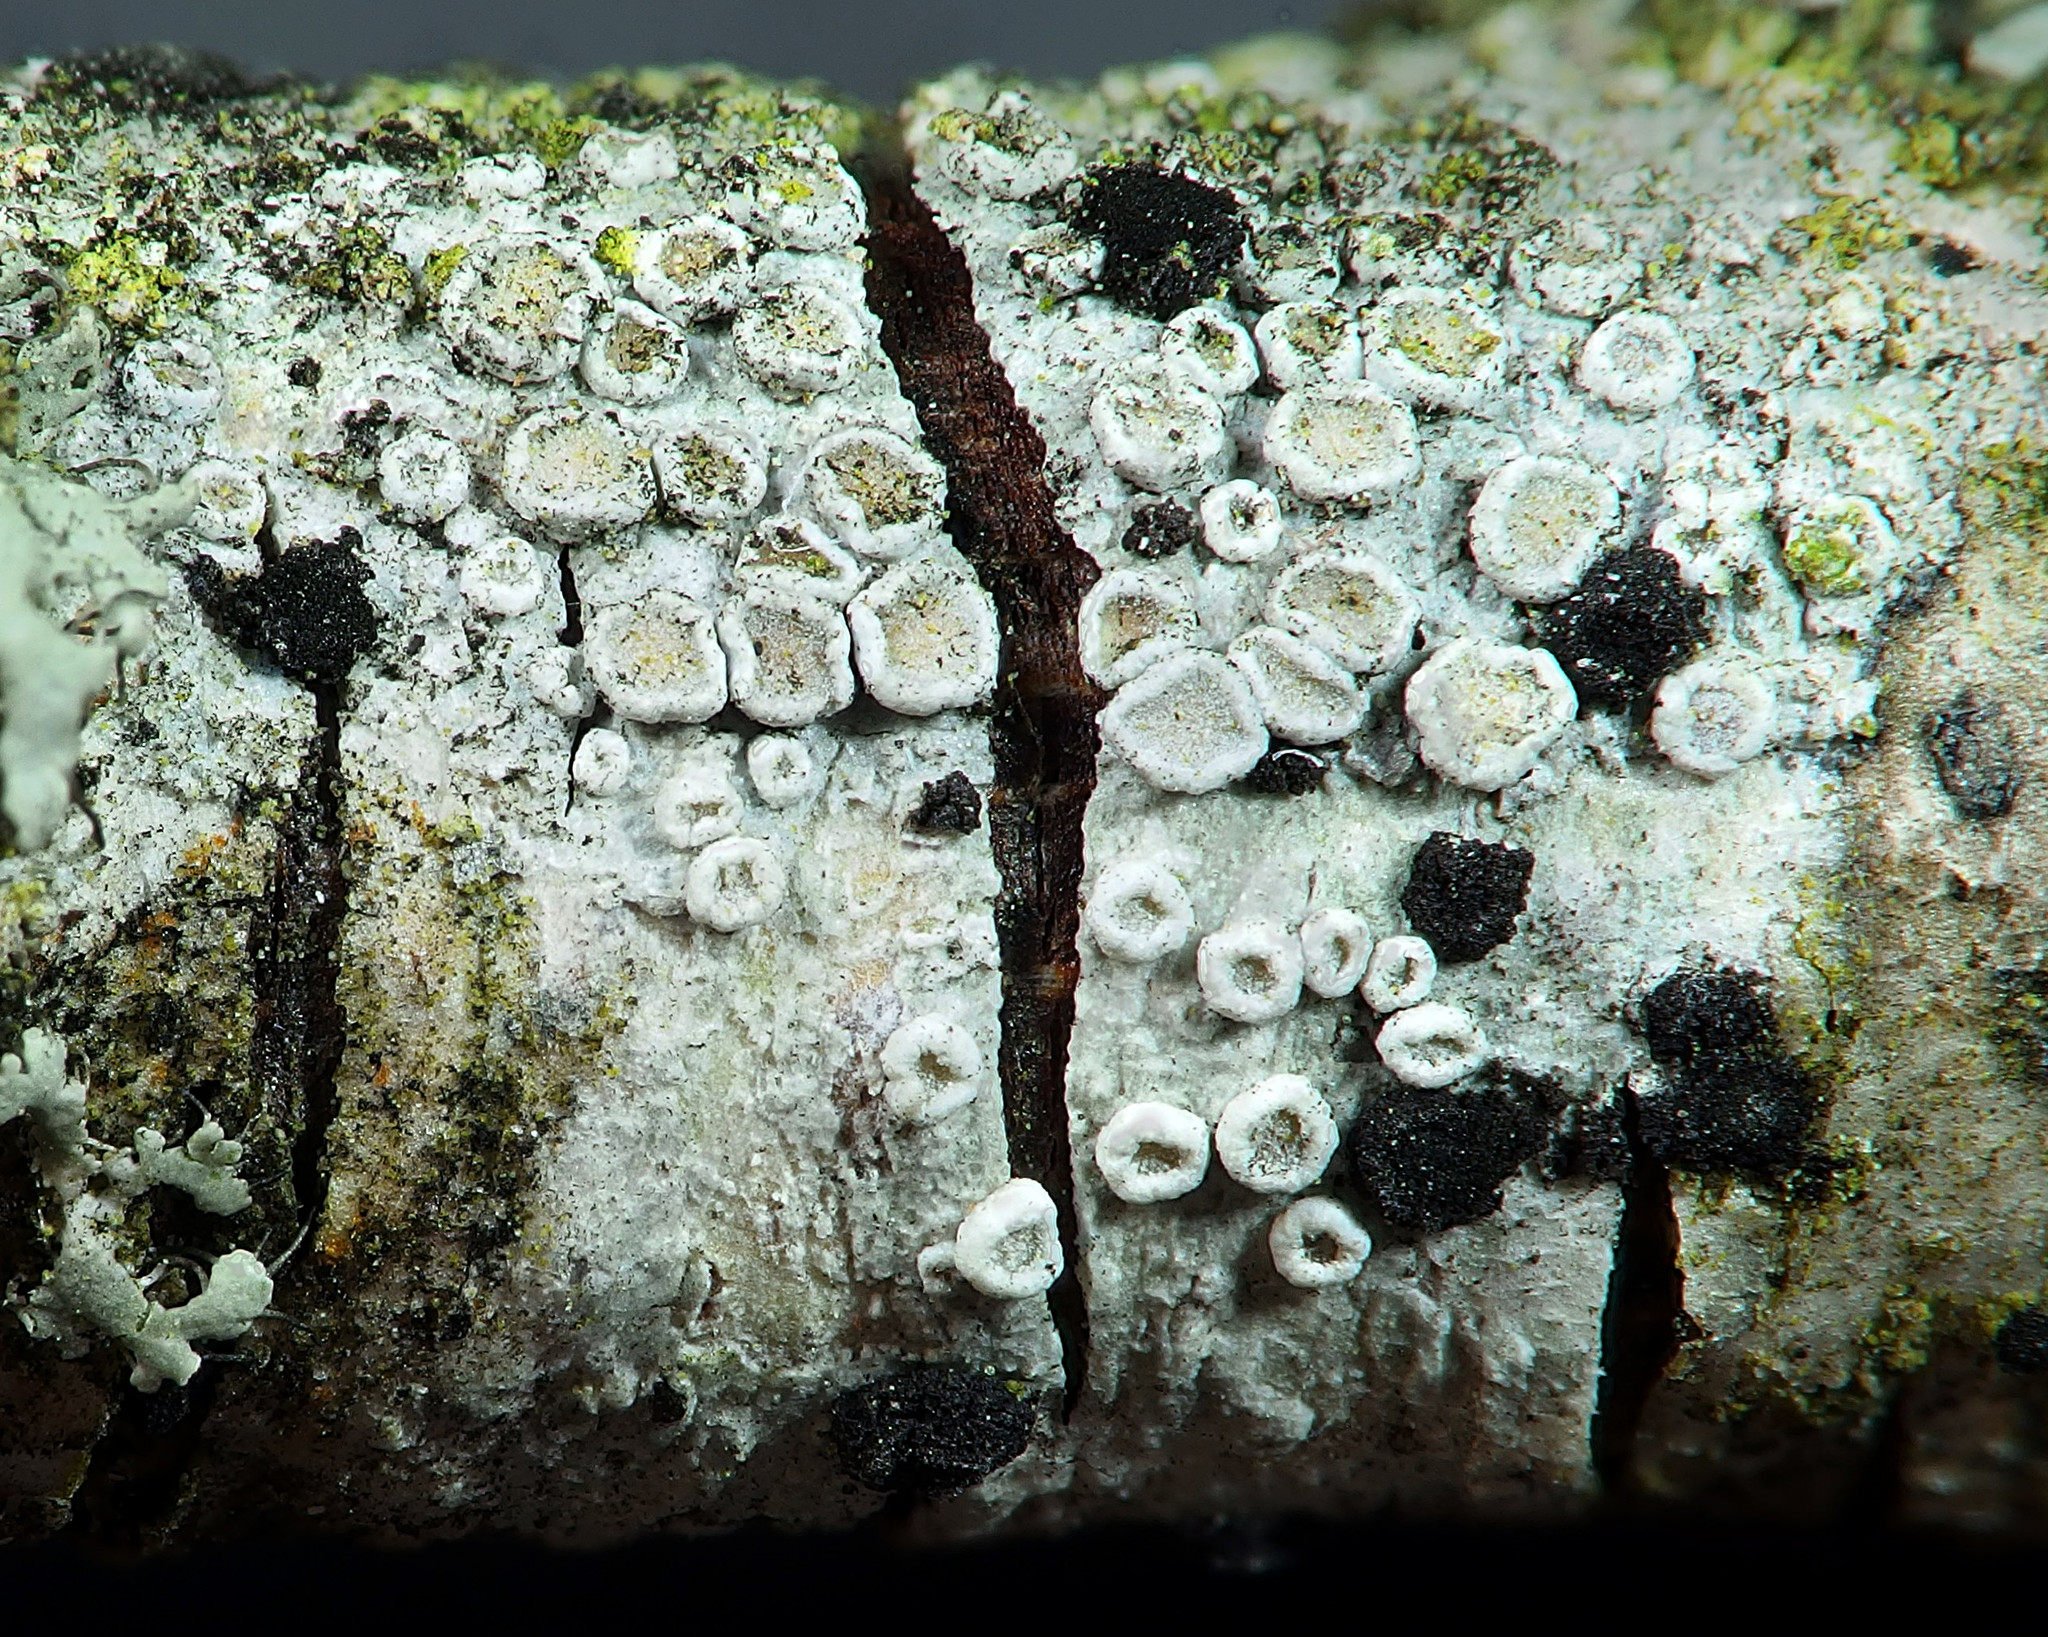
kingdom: Fungi
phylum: Ascomycota
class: Lecanoromycetes
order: Lecanorales
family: Lecanoraceae
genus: Glaucomaria
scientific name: Glaucomaria carpinea
